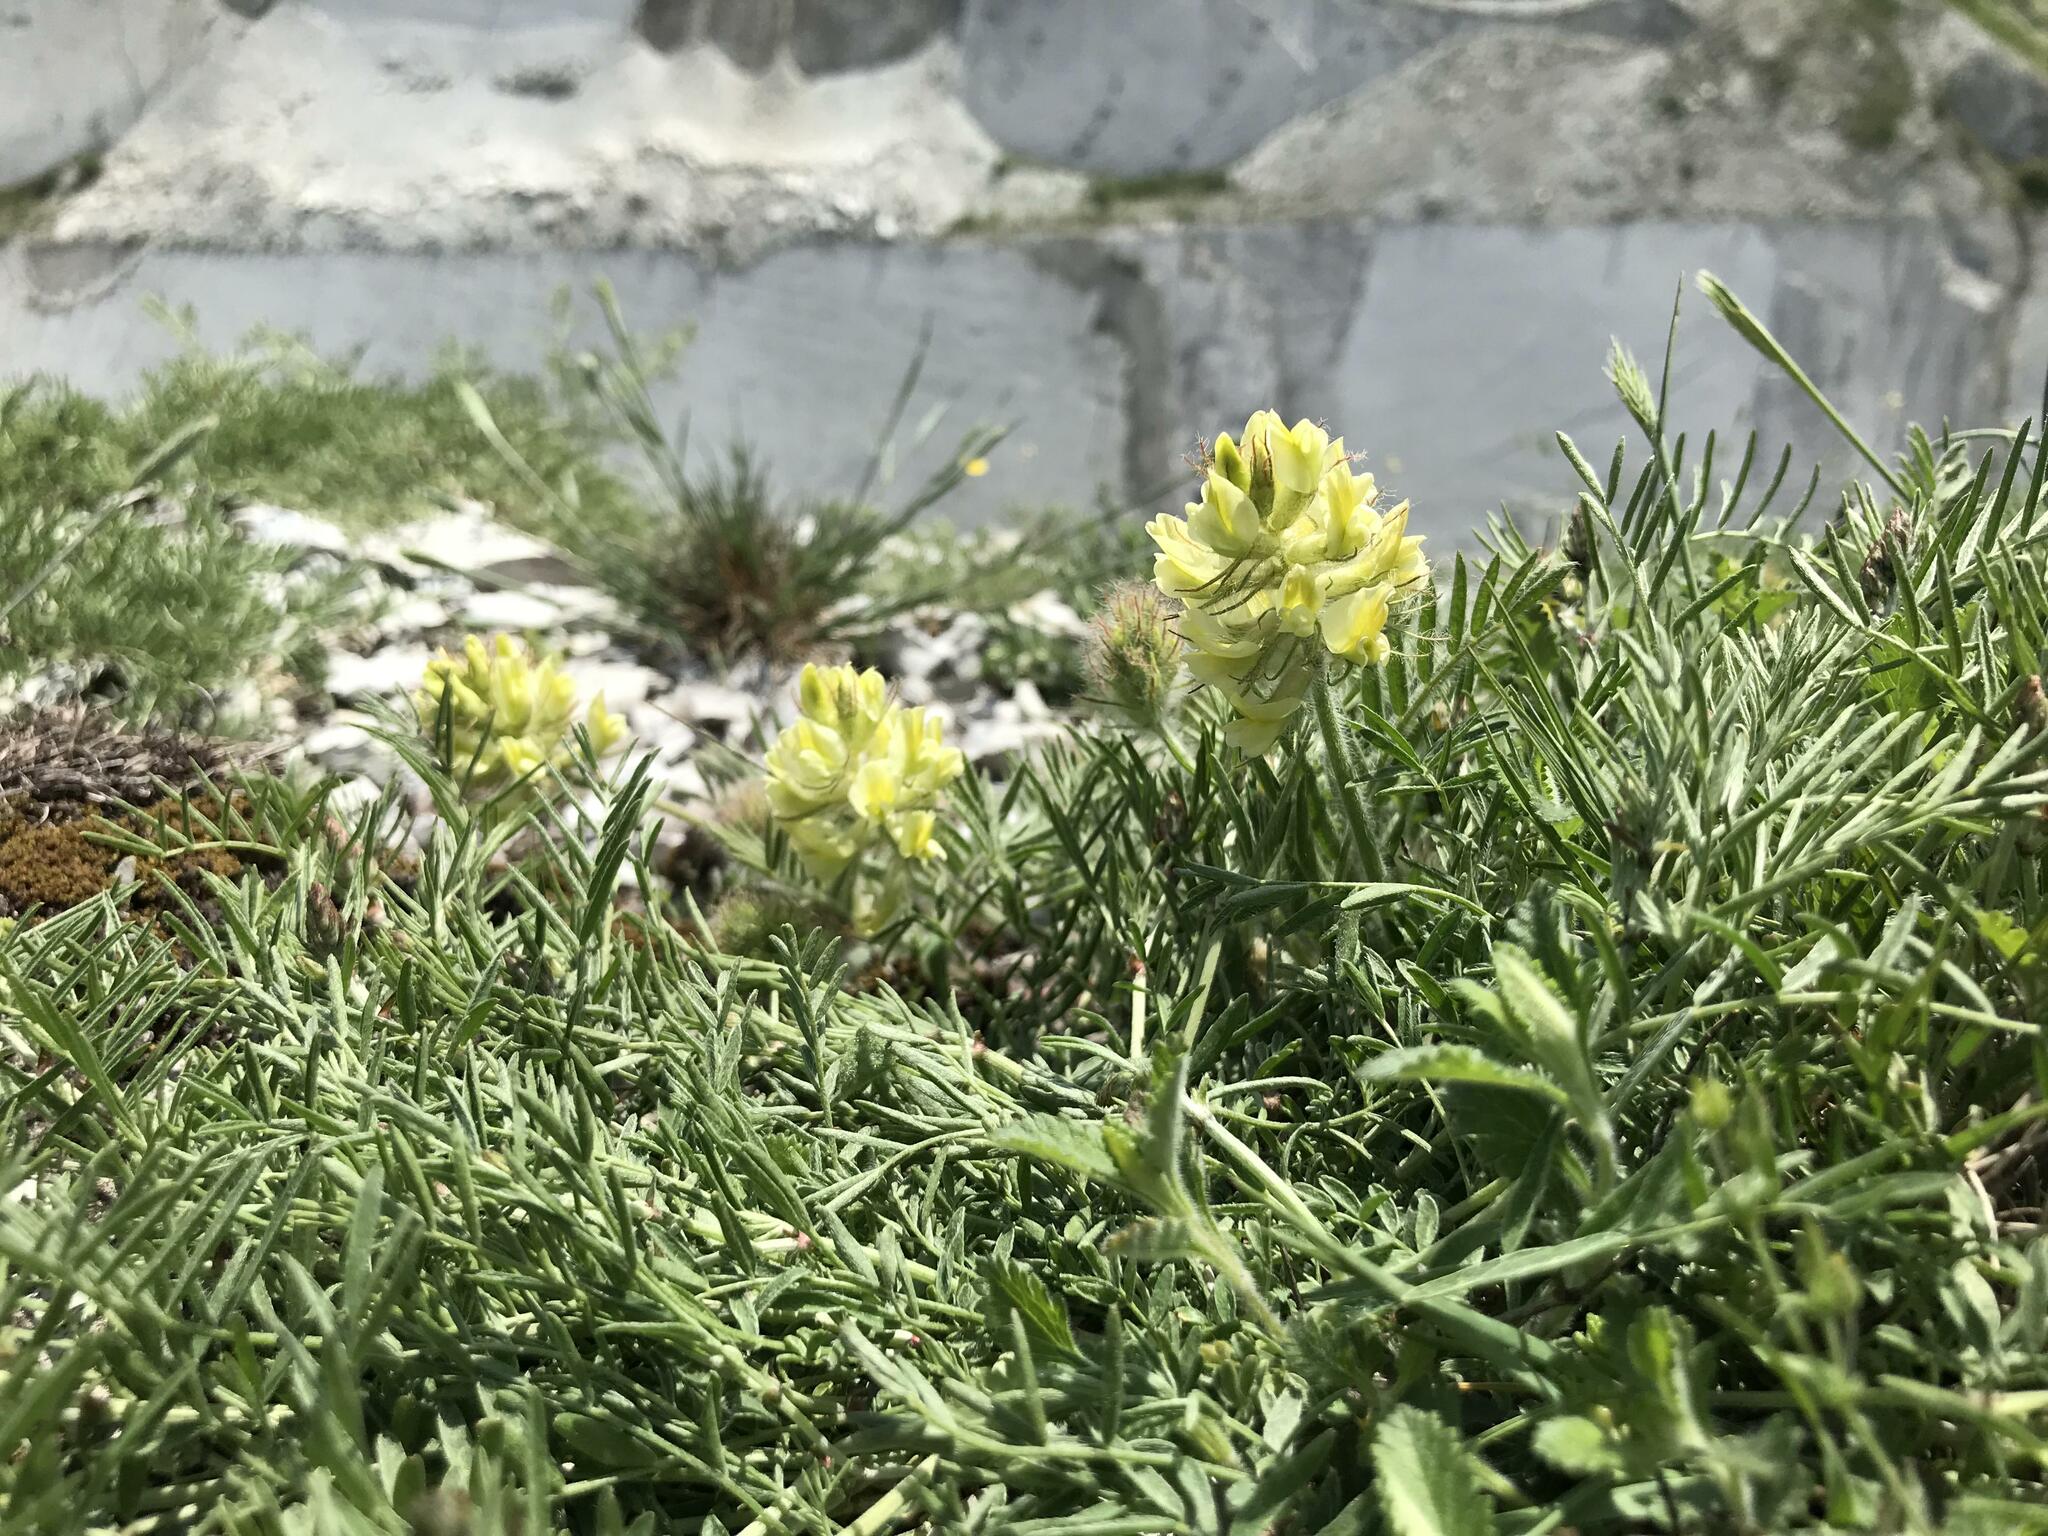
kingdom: Plantae
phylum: Tracheophyta
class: Magnoliopsida
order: Fabales
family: Fabaceae
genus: Oxytropis
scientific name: Oxytropis pilosa
